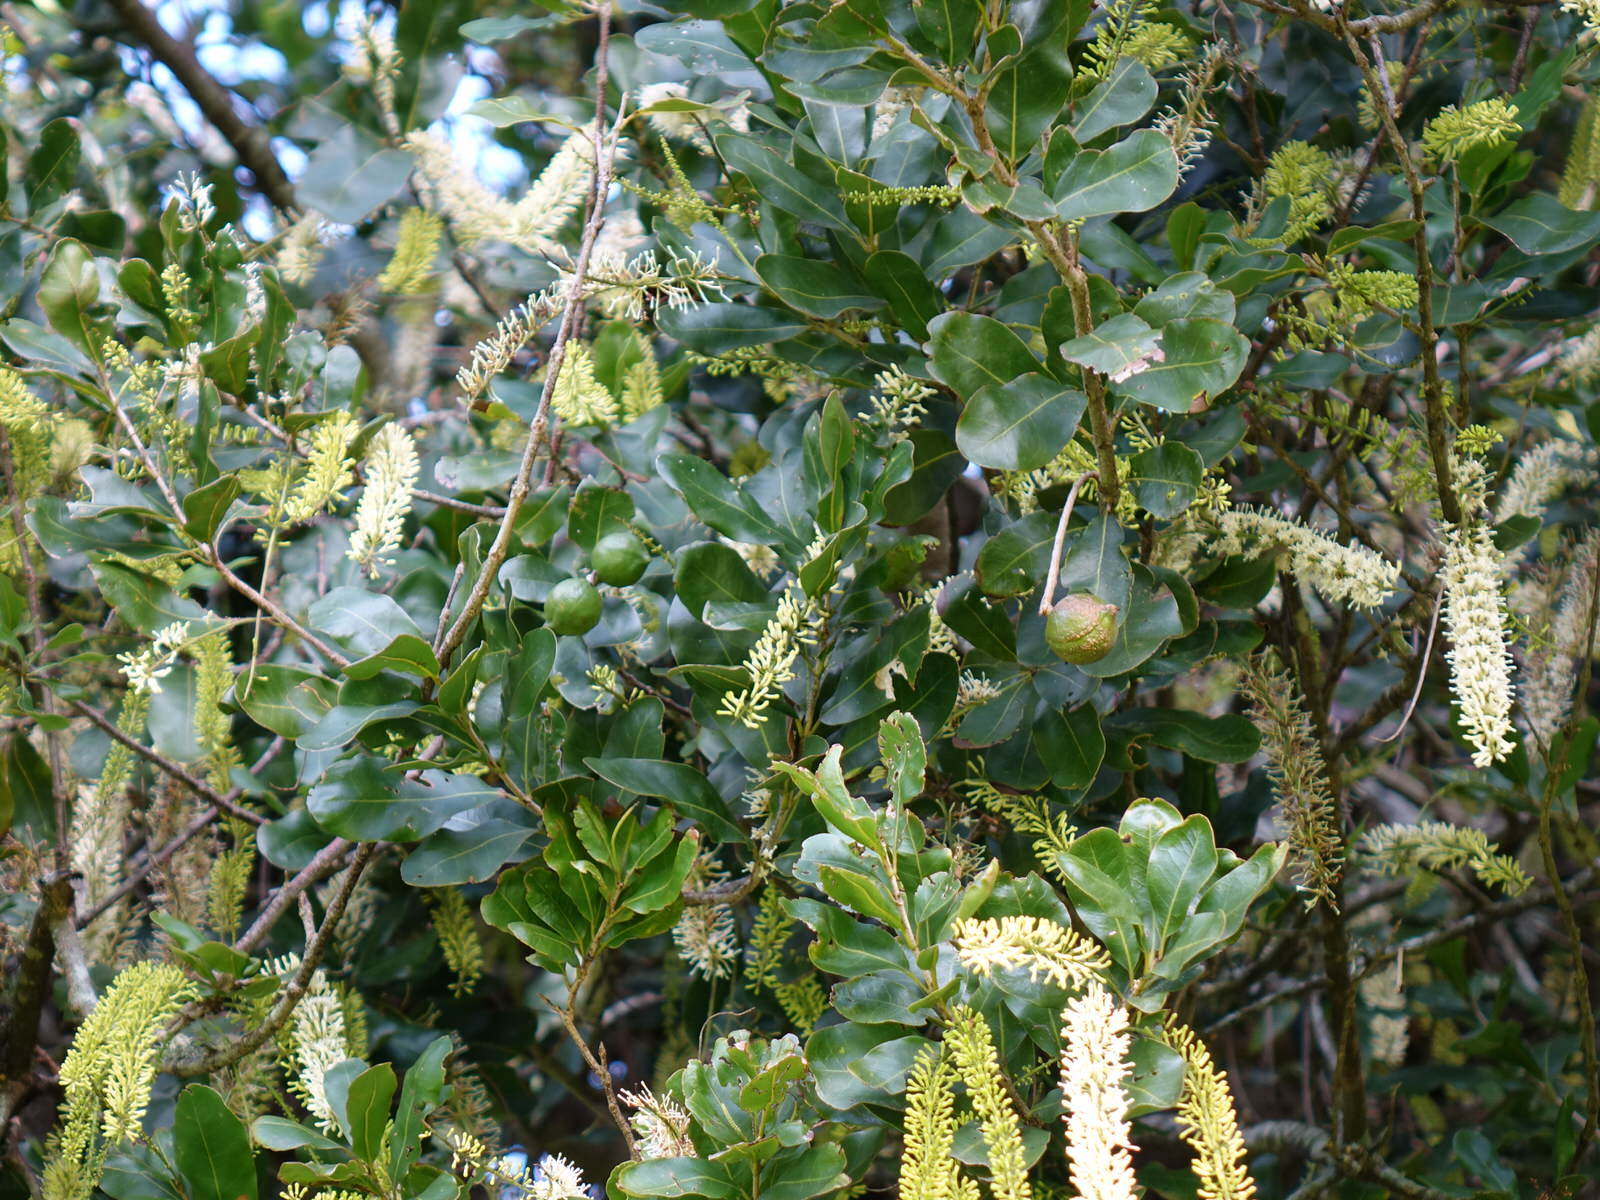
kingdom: Animalia
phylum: Arthropoda
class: Insecta
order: Lepidoptera
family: Nymphalidae
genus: Danaus
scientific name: Danaus plexippus
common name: Monarch
